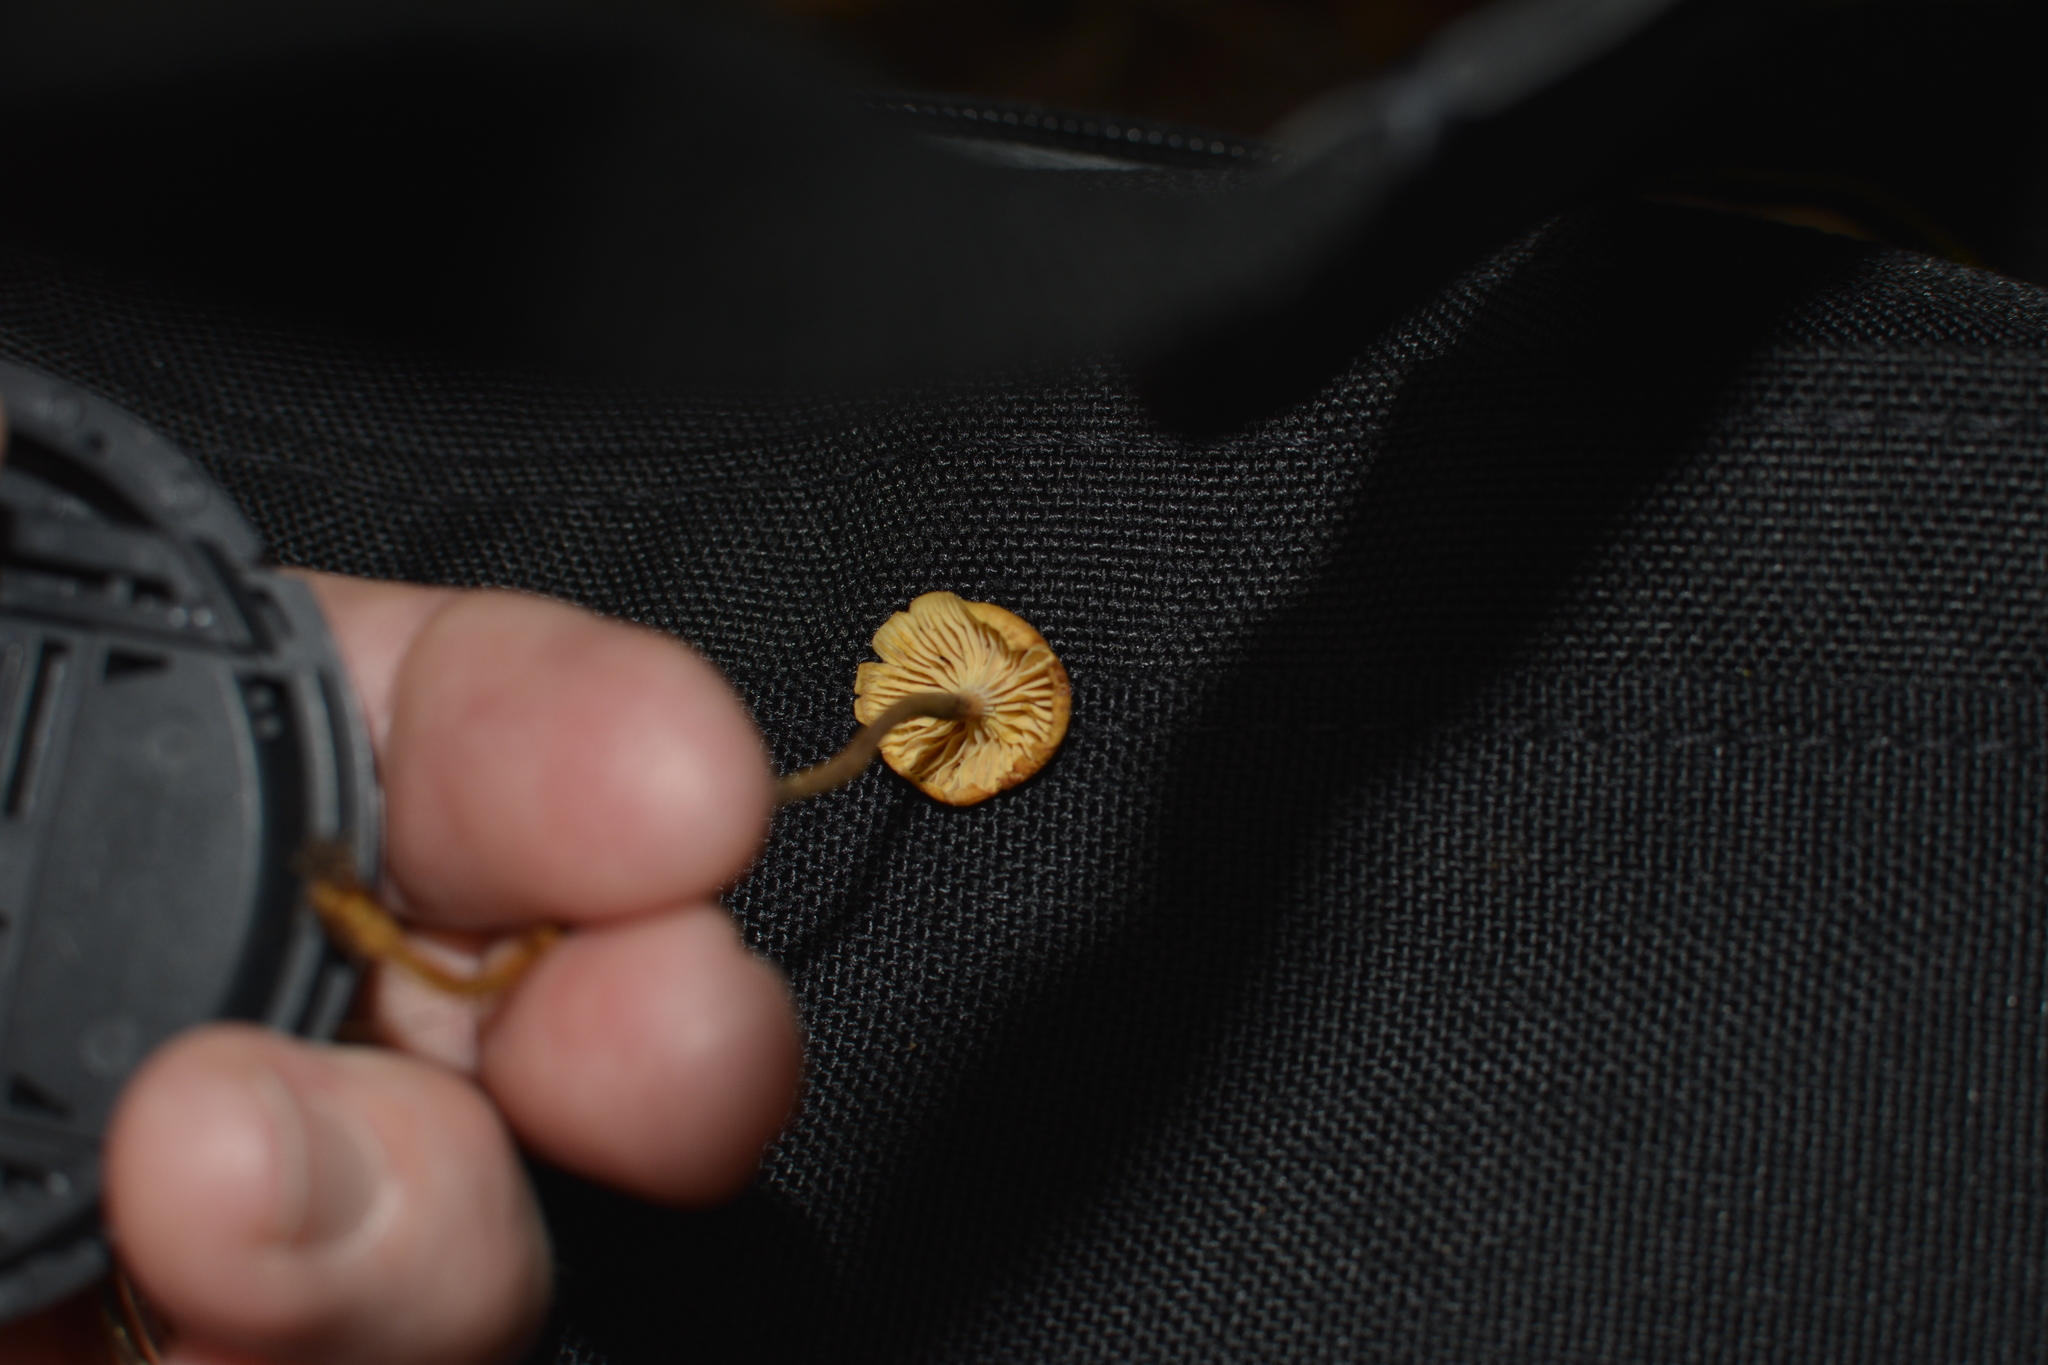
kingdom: Fungi
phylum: Basidiomycota
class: Agaricomycetes
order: Agaricales
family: Mycenaceae
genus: Xeromphalina
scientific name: Xeromphalina campanella
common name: Pinewood gingertail
